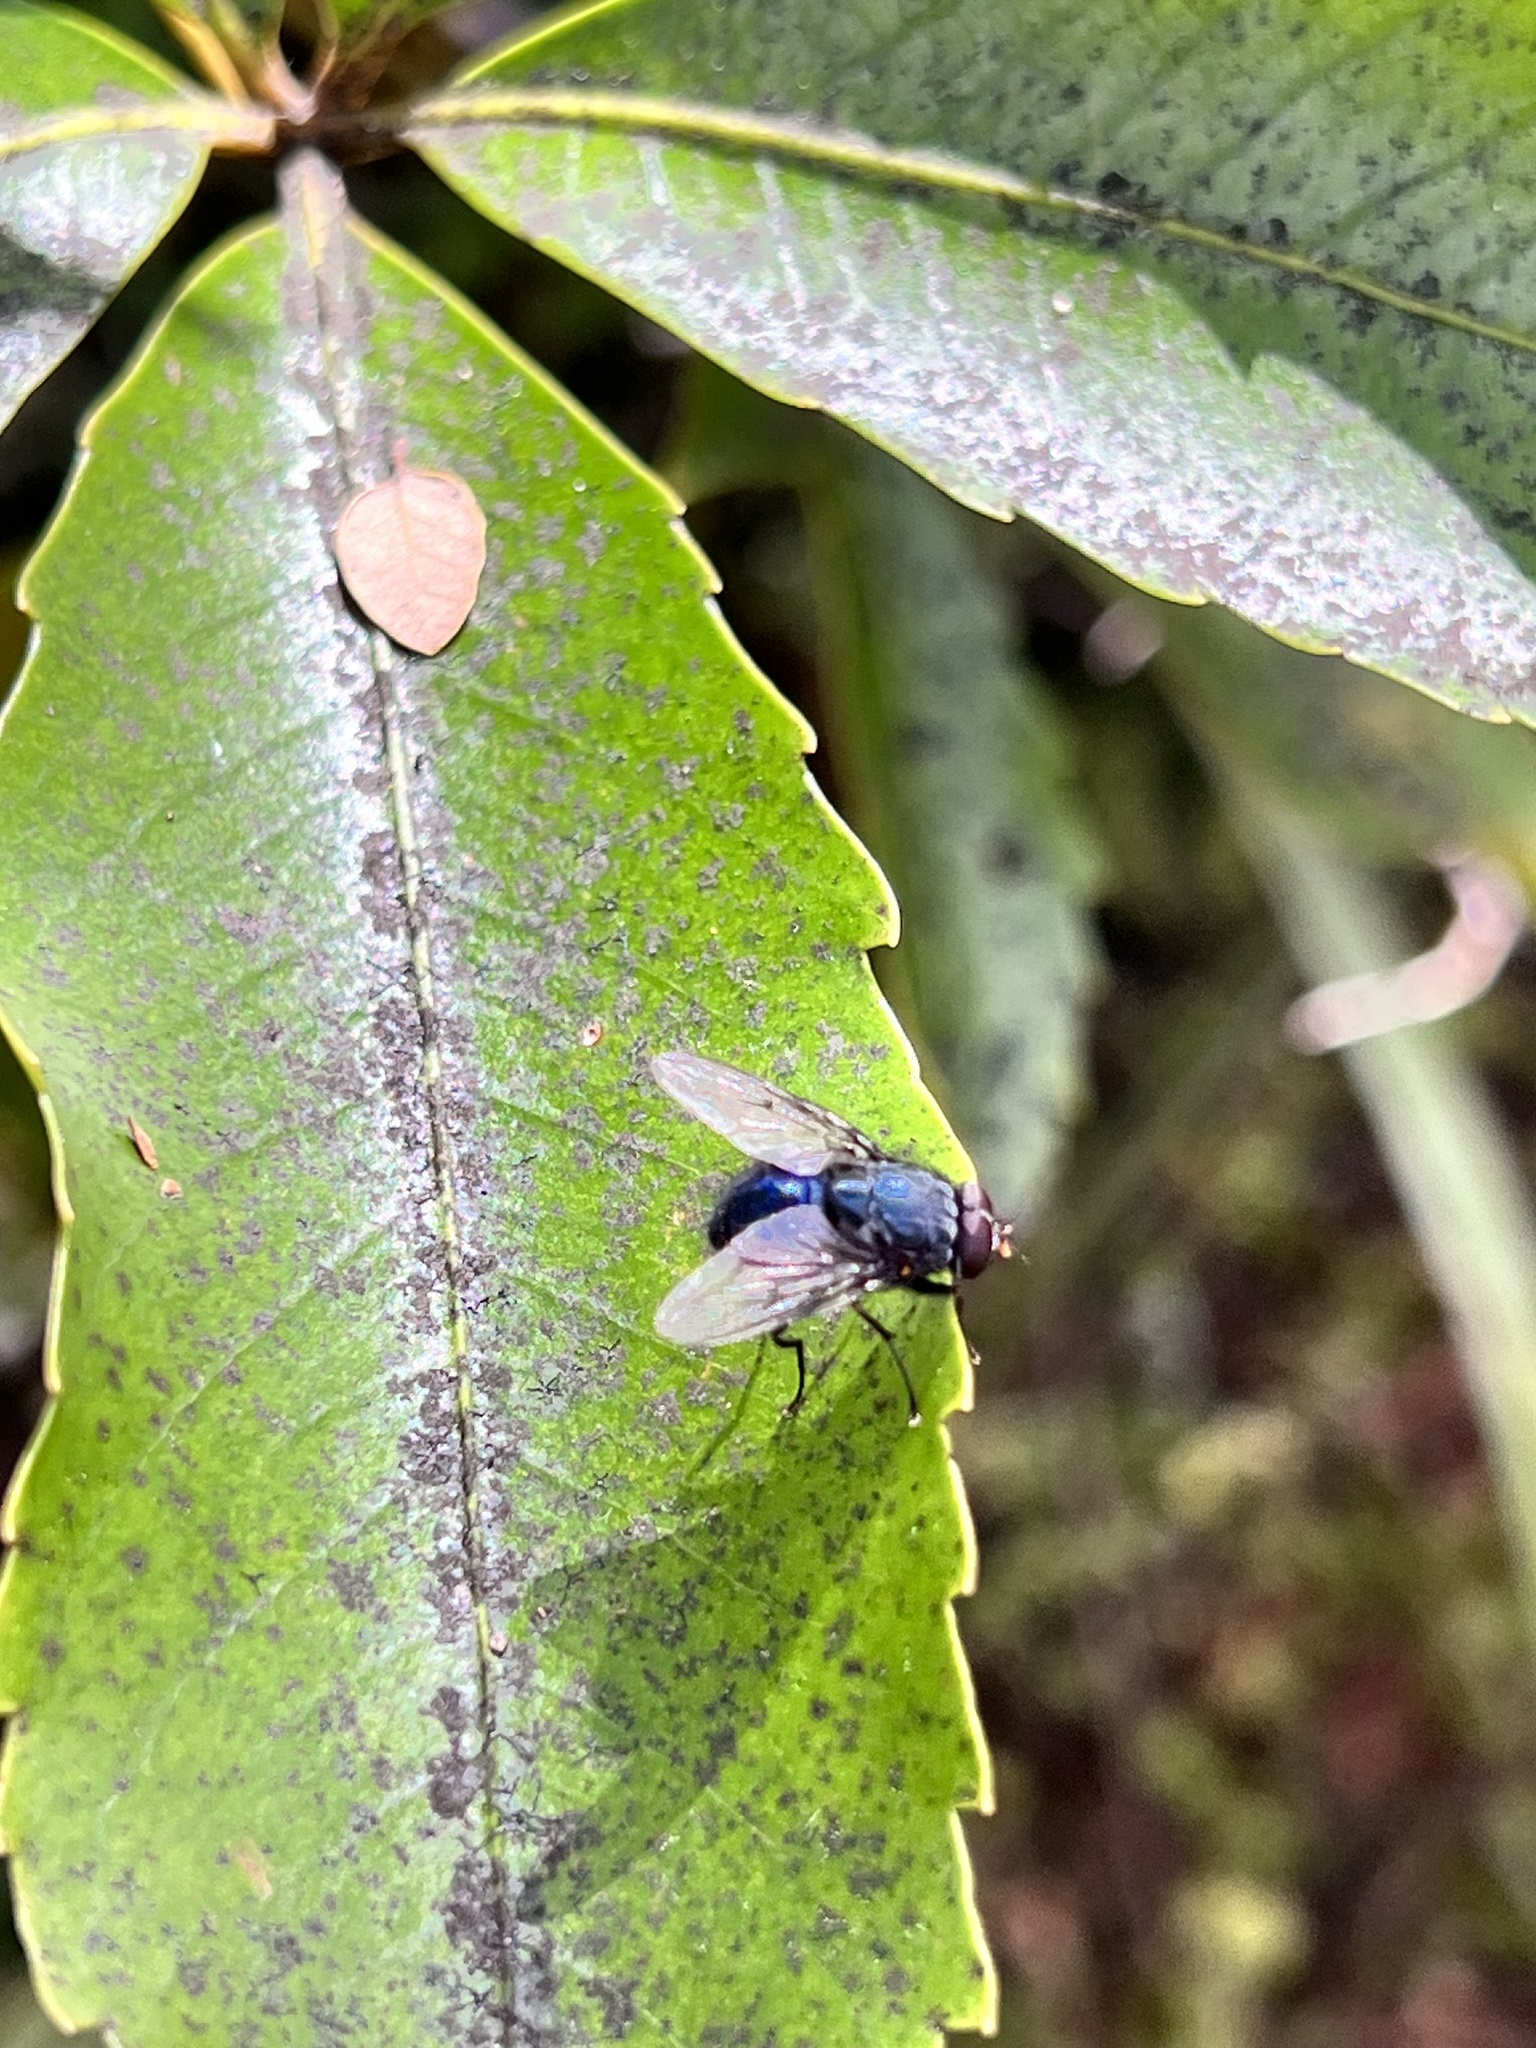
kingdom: Animalia
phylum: Arthropoda
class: Insecta
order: Diptera
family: Muscidae
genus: Calliphoroides
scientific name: Calliphoroides antennatis
